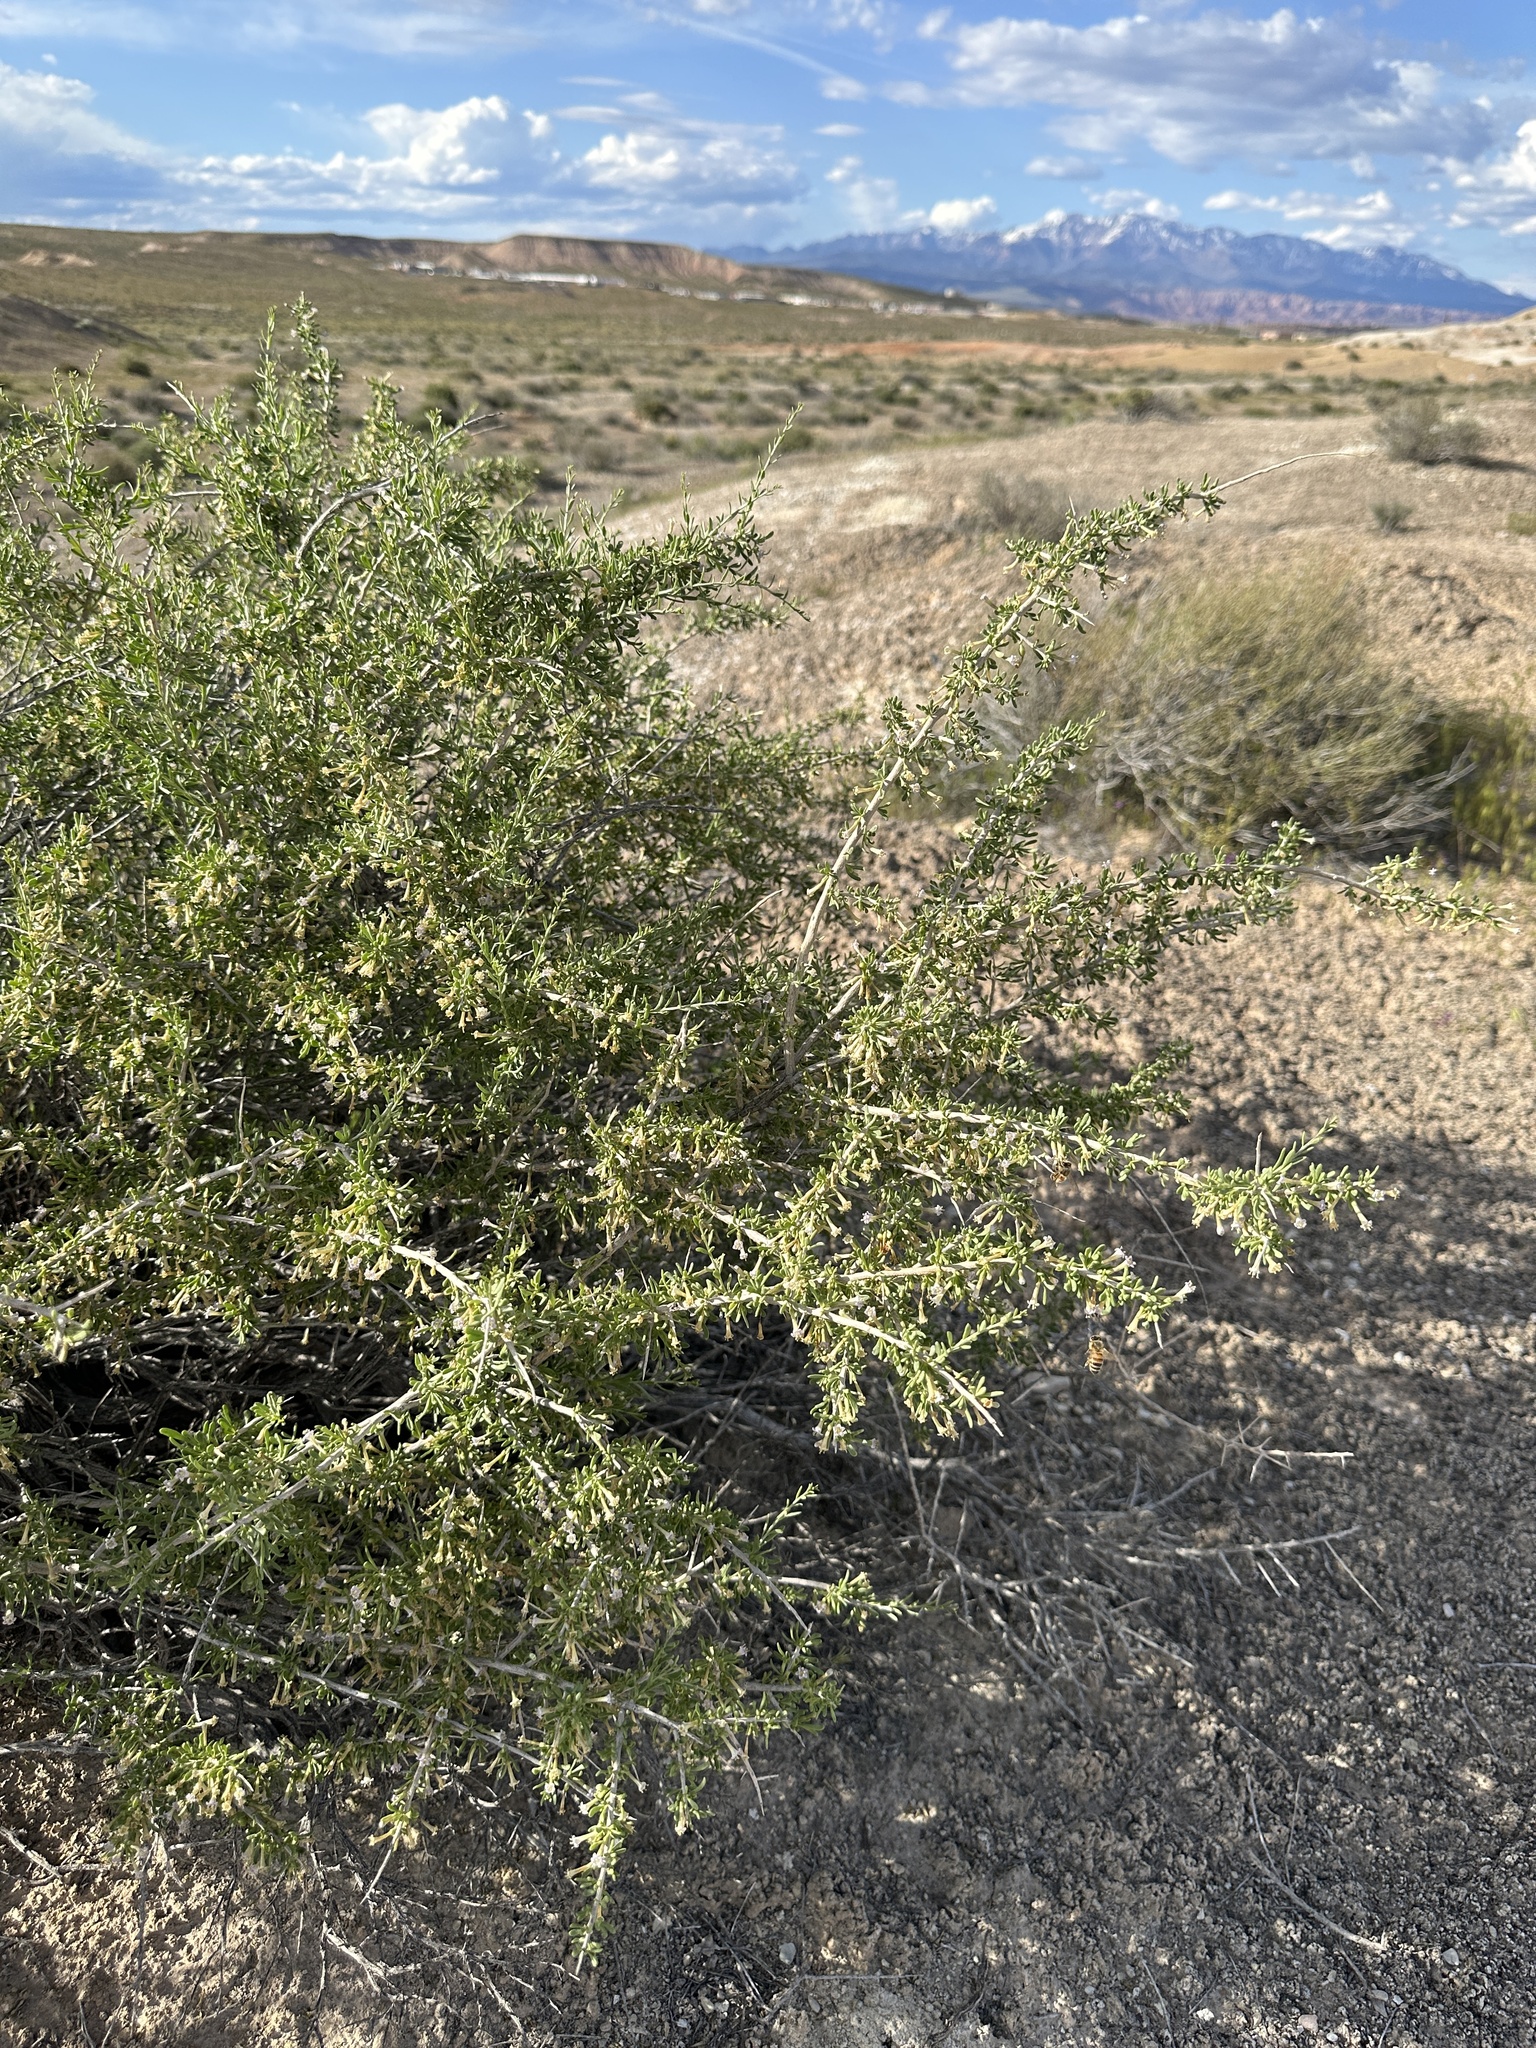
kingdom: Plantae
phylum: Tracheophyta
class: Magnoliopsida
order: Solanales
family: Solanaceae
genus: Lycium
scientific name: Lycium andersonii
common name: Water-jacket
